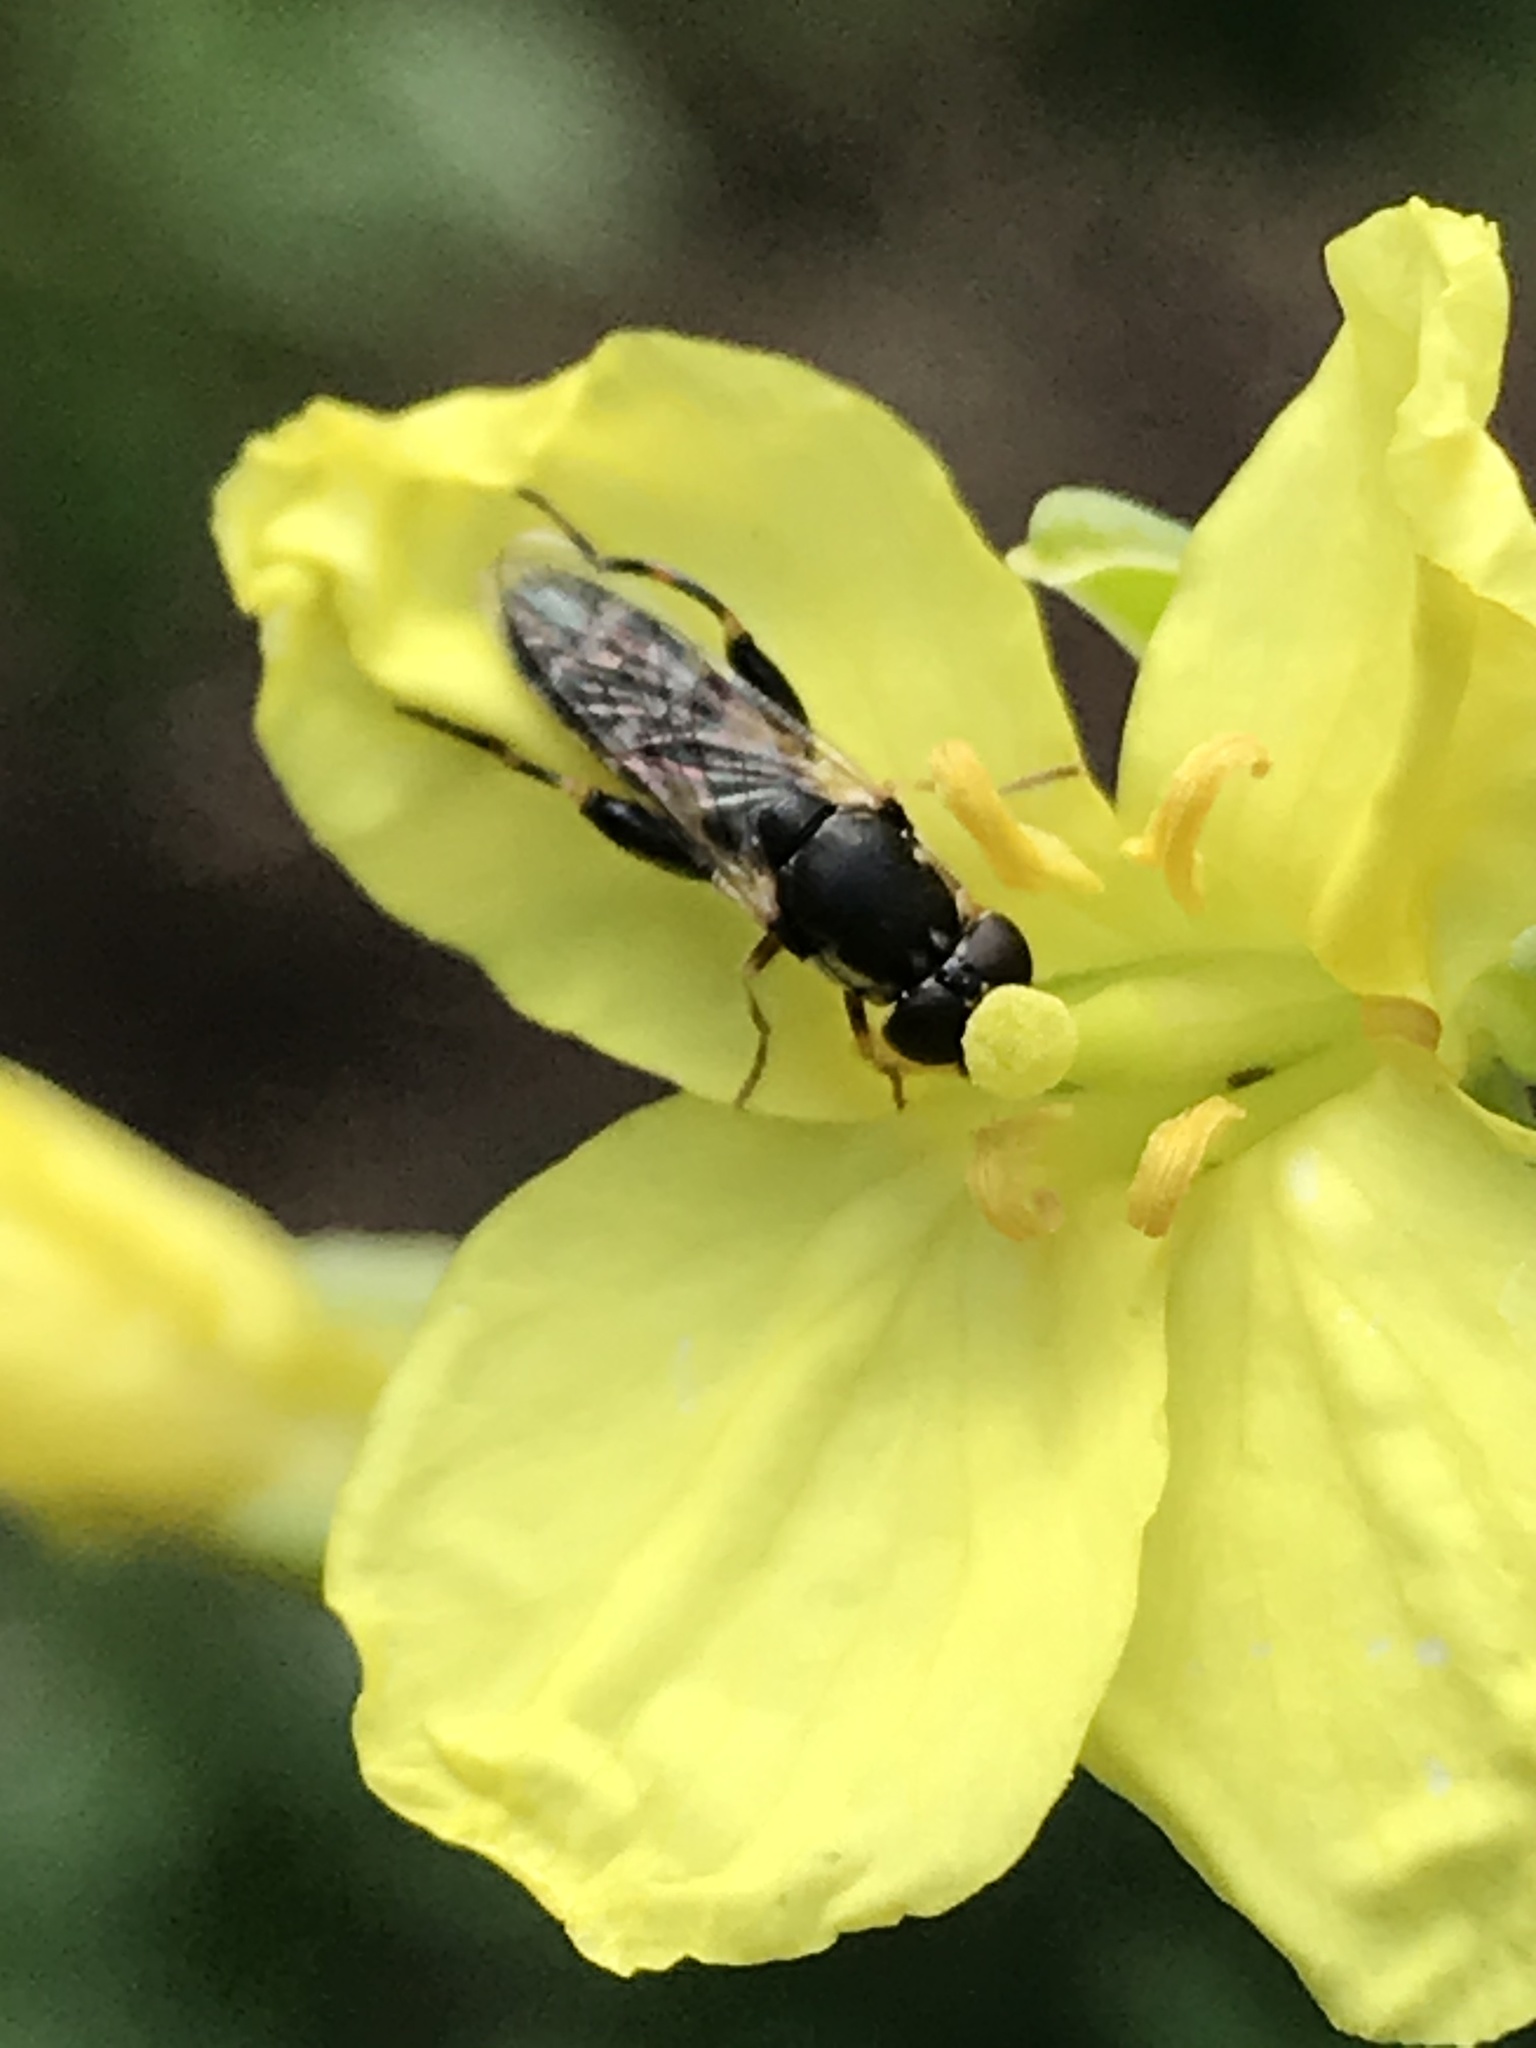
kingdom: Animalia
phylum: Arthropoda
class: Insecta
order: Diptera
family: Syrphidae
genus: Syritta
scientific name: Syritta pipiens
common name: Hover fly
